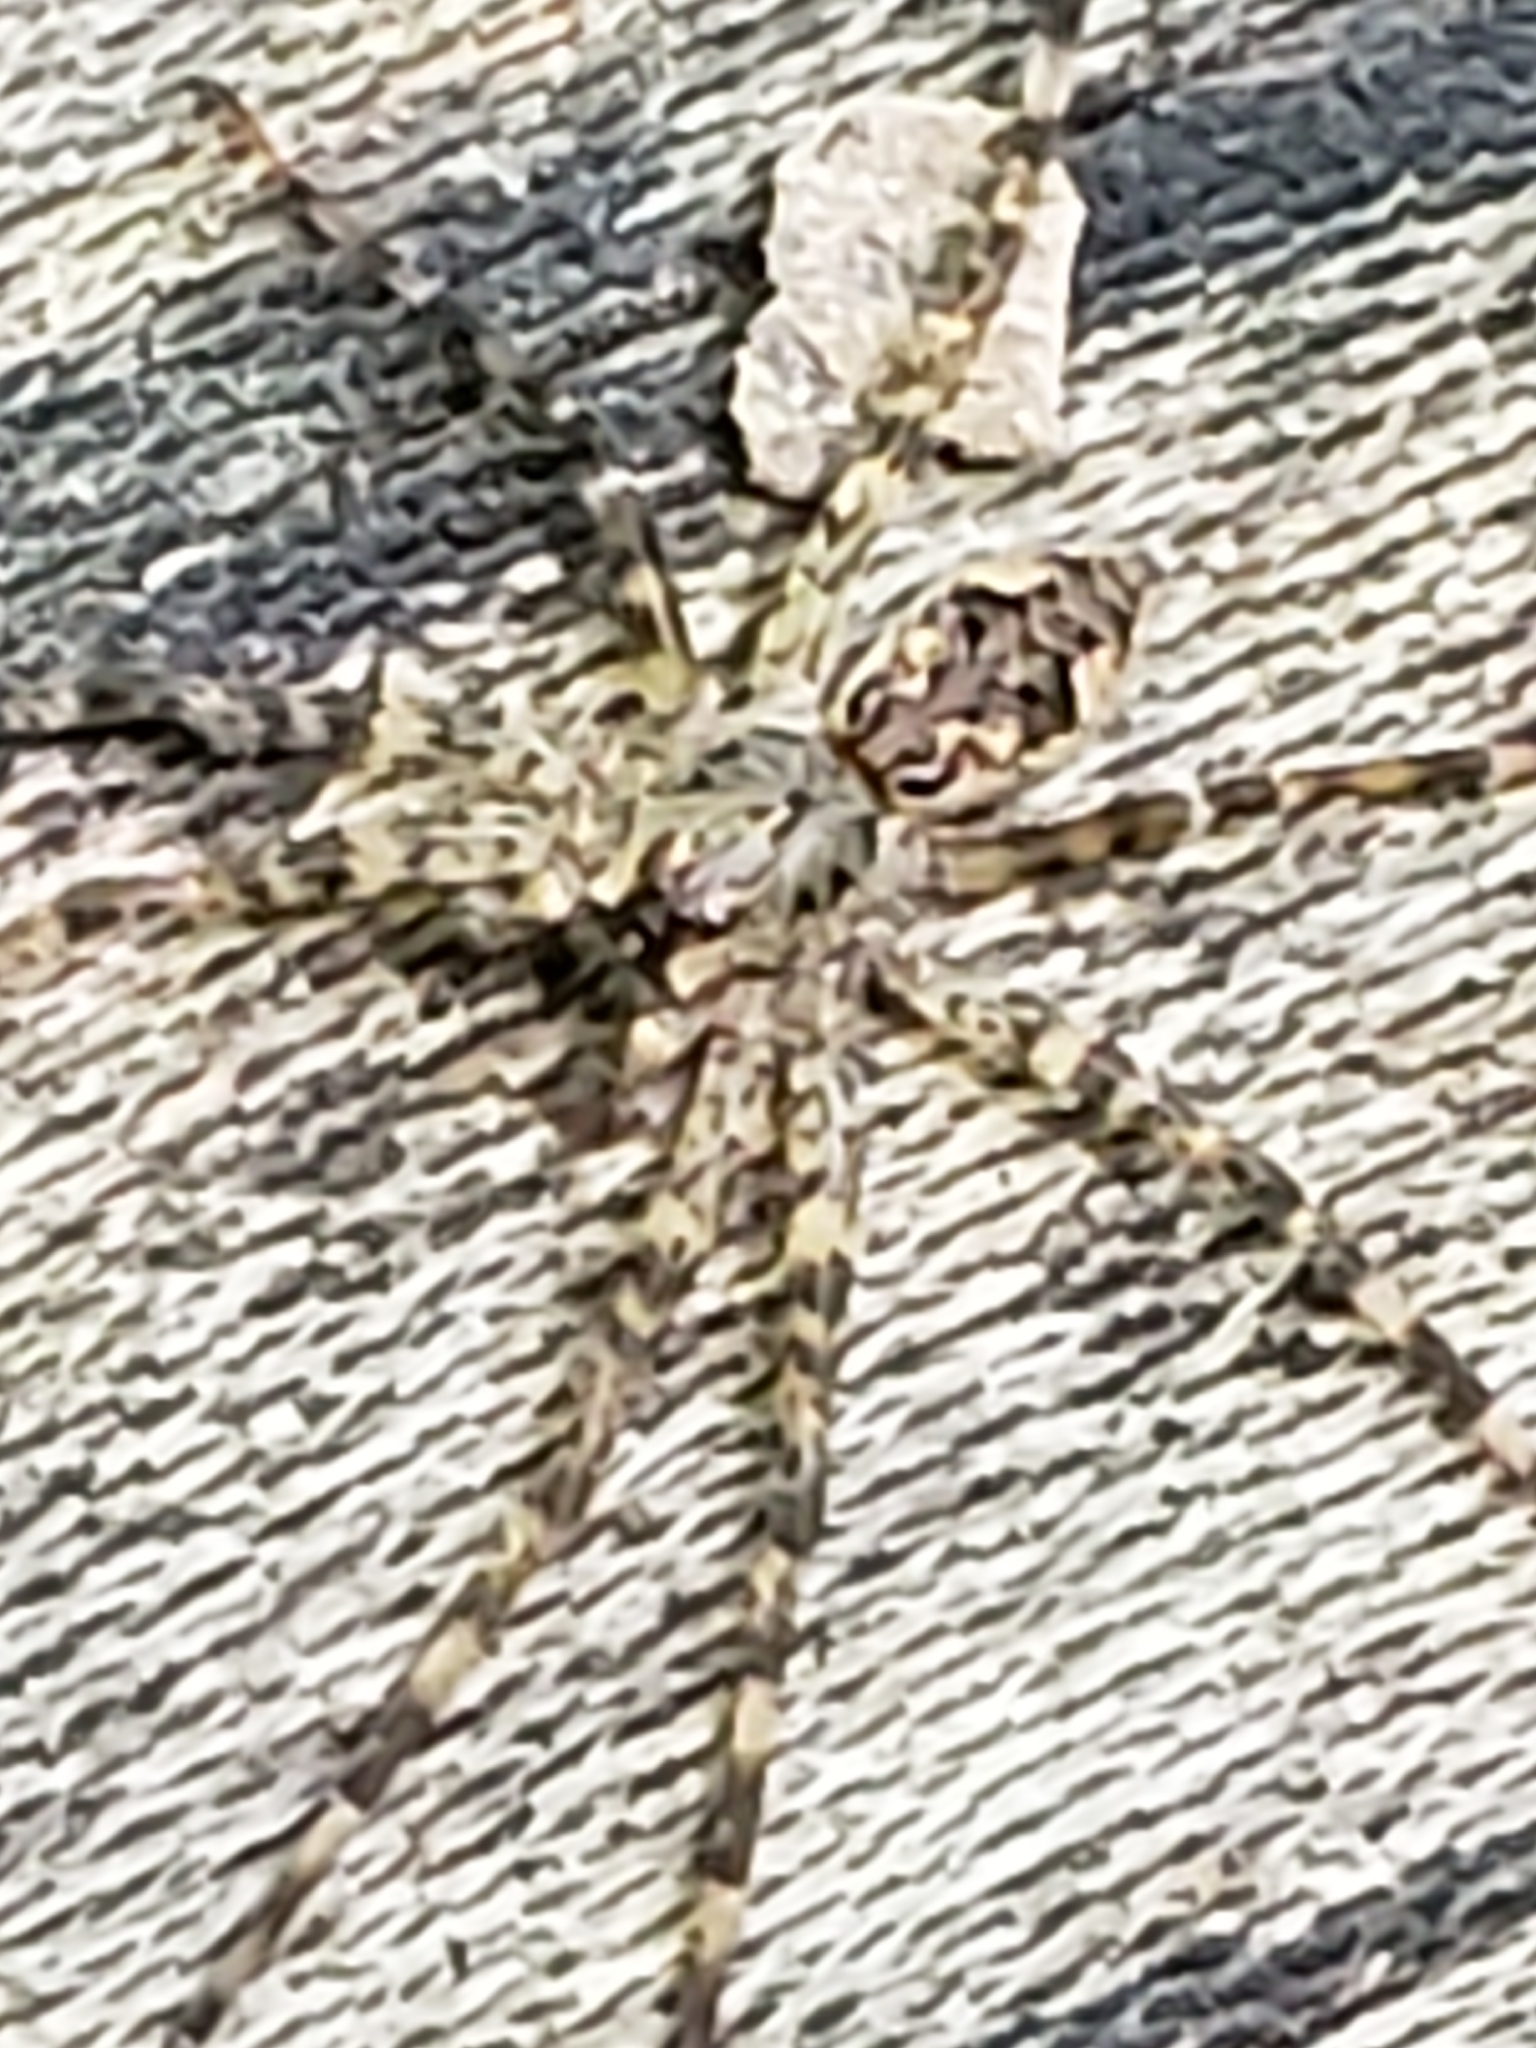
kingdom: Animalia
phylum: Arthropoda
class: Arachnida
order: Araneae
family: Pisauridae
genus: Dolomedes
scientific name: Dolomedes tenebrosus
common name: Dark fishing spider
